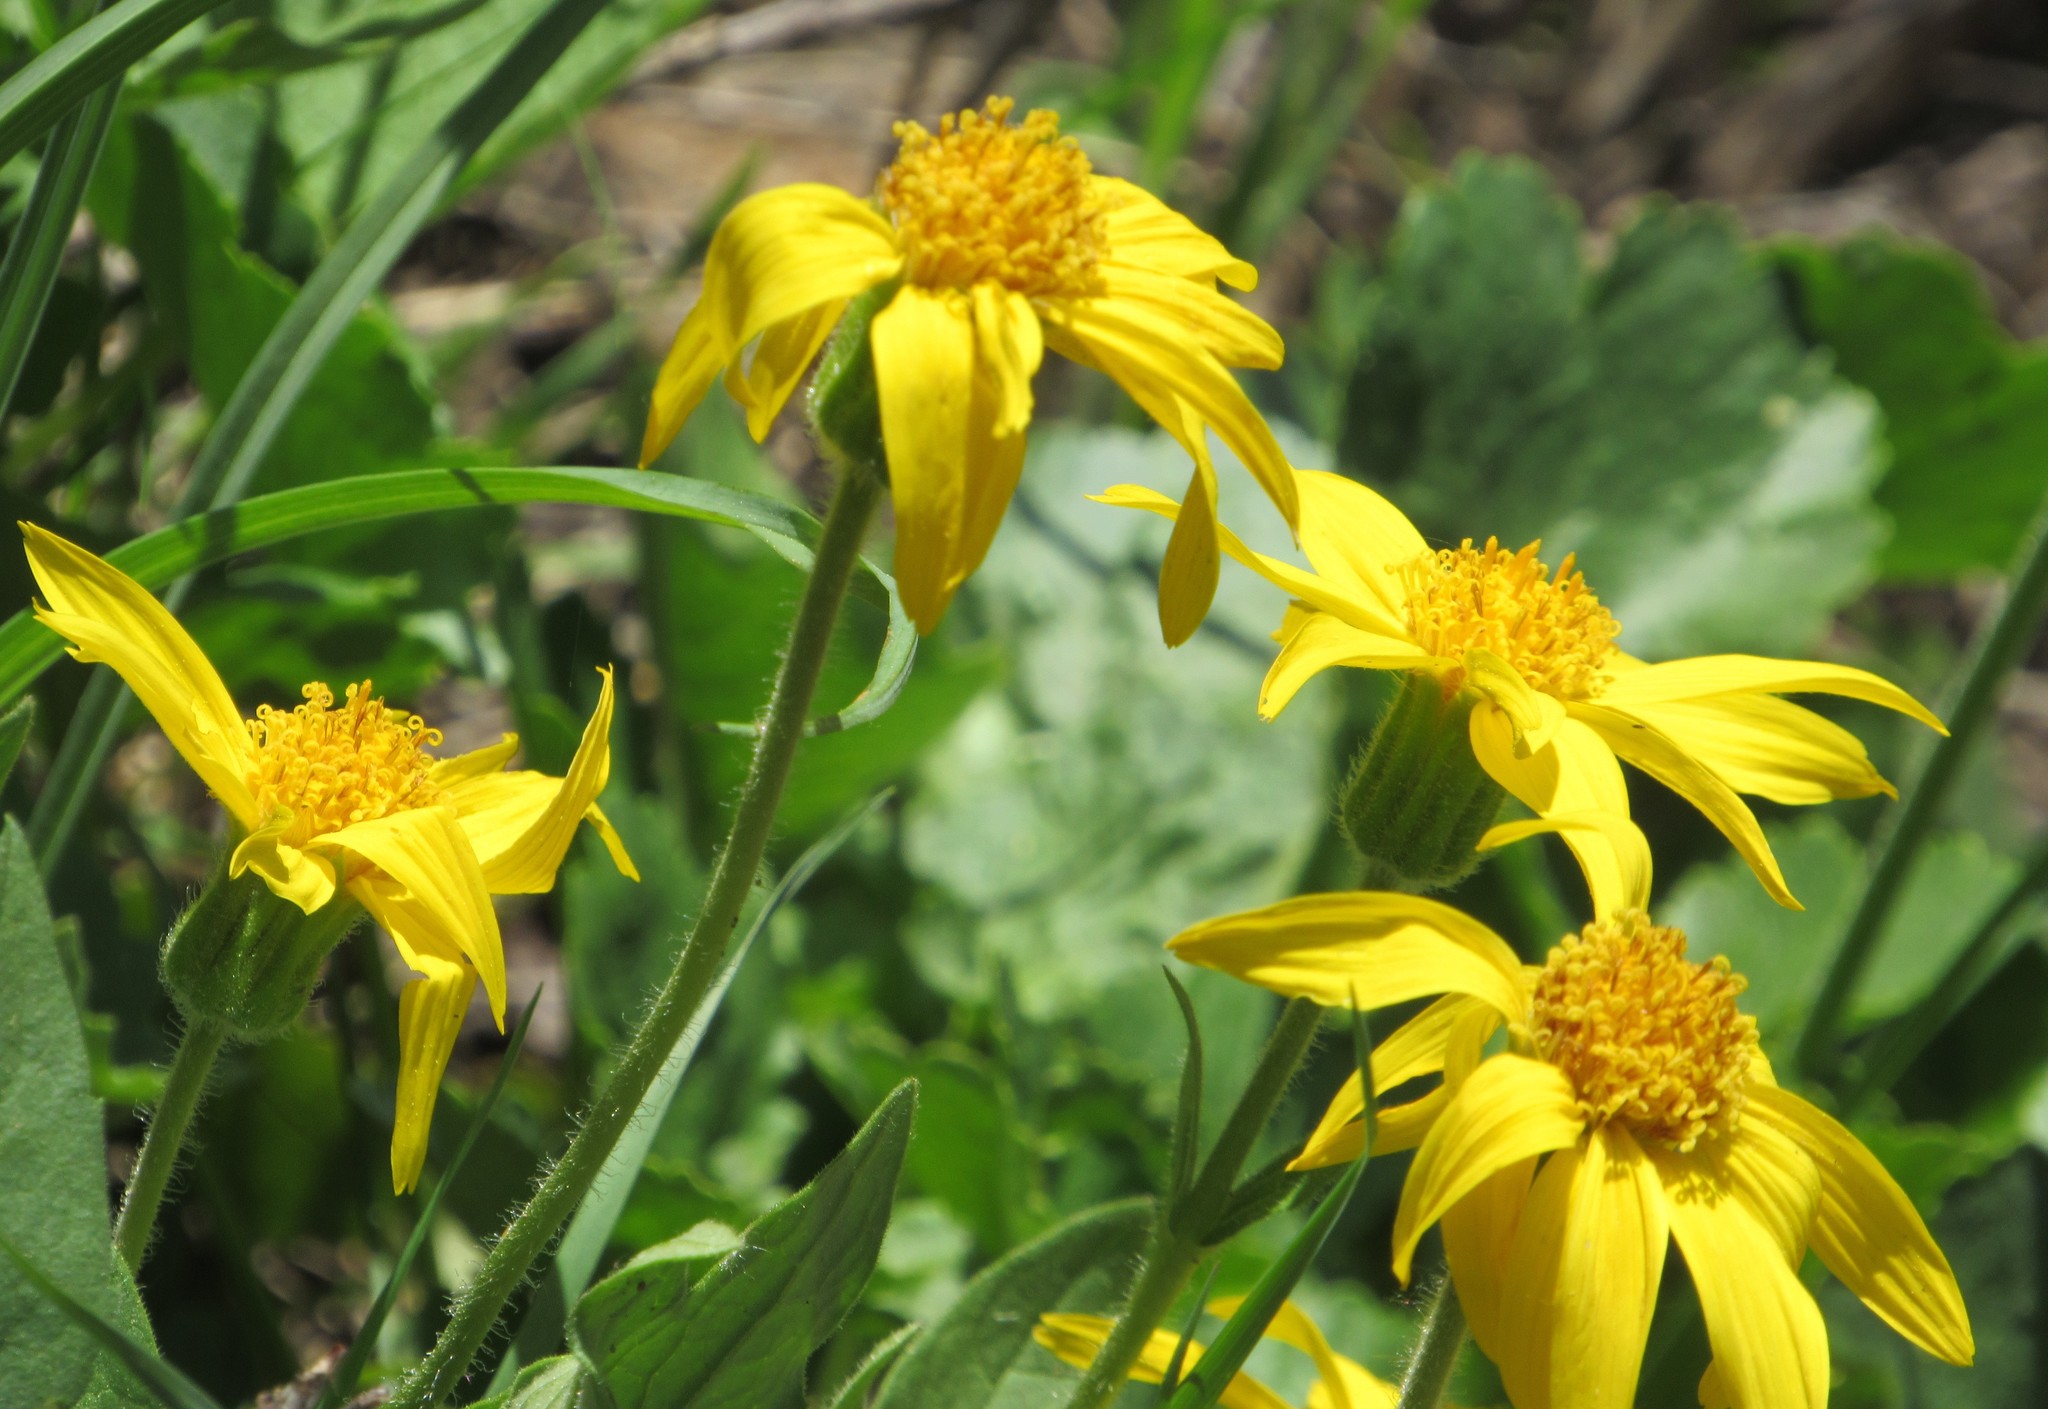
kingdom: Plantae
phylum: Tracheophyta
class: Magnoliopsida
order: Asterales
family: Asteraceae
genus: Arnica
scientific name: Arnica cordifolia
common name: Heart-leaf arnica
